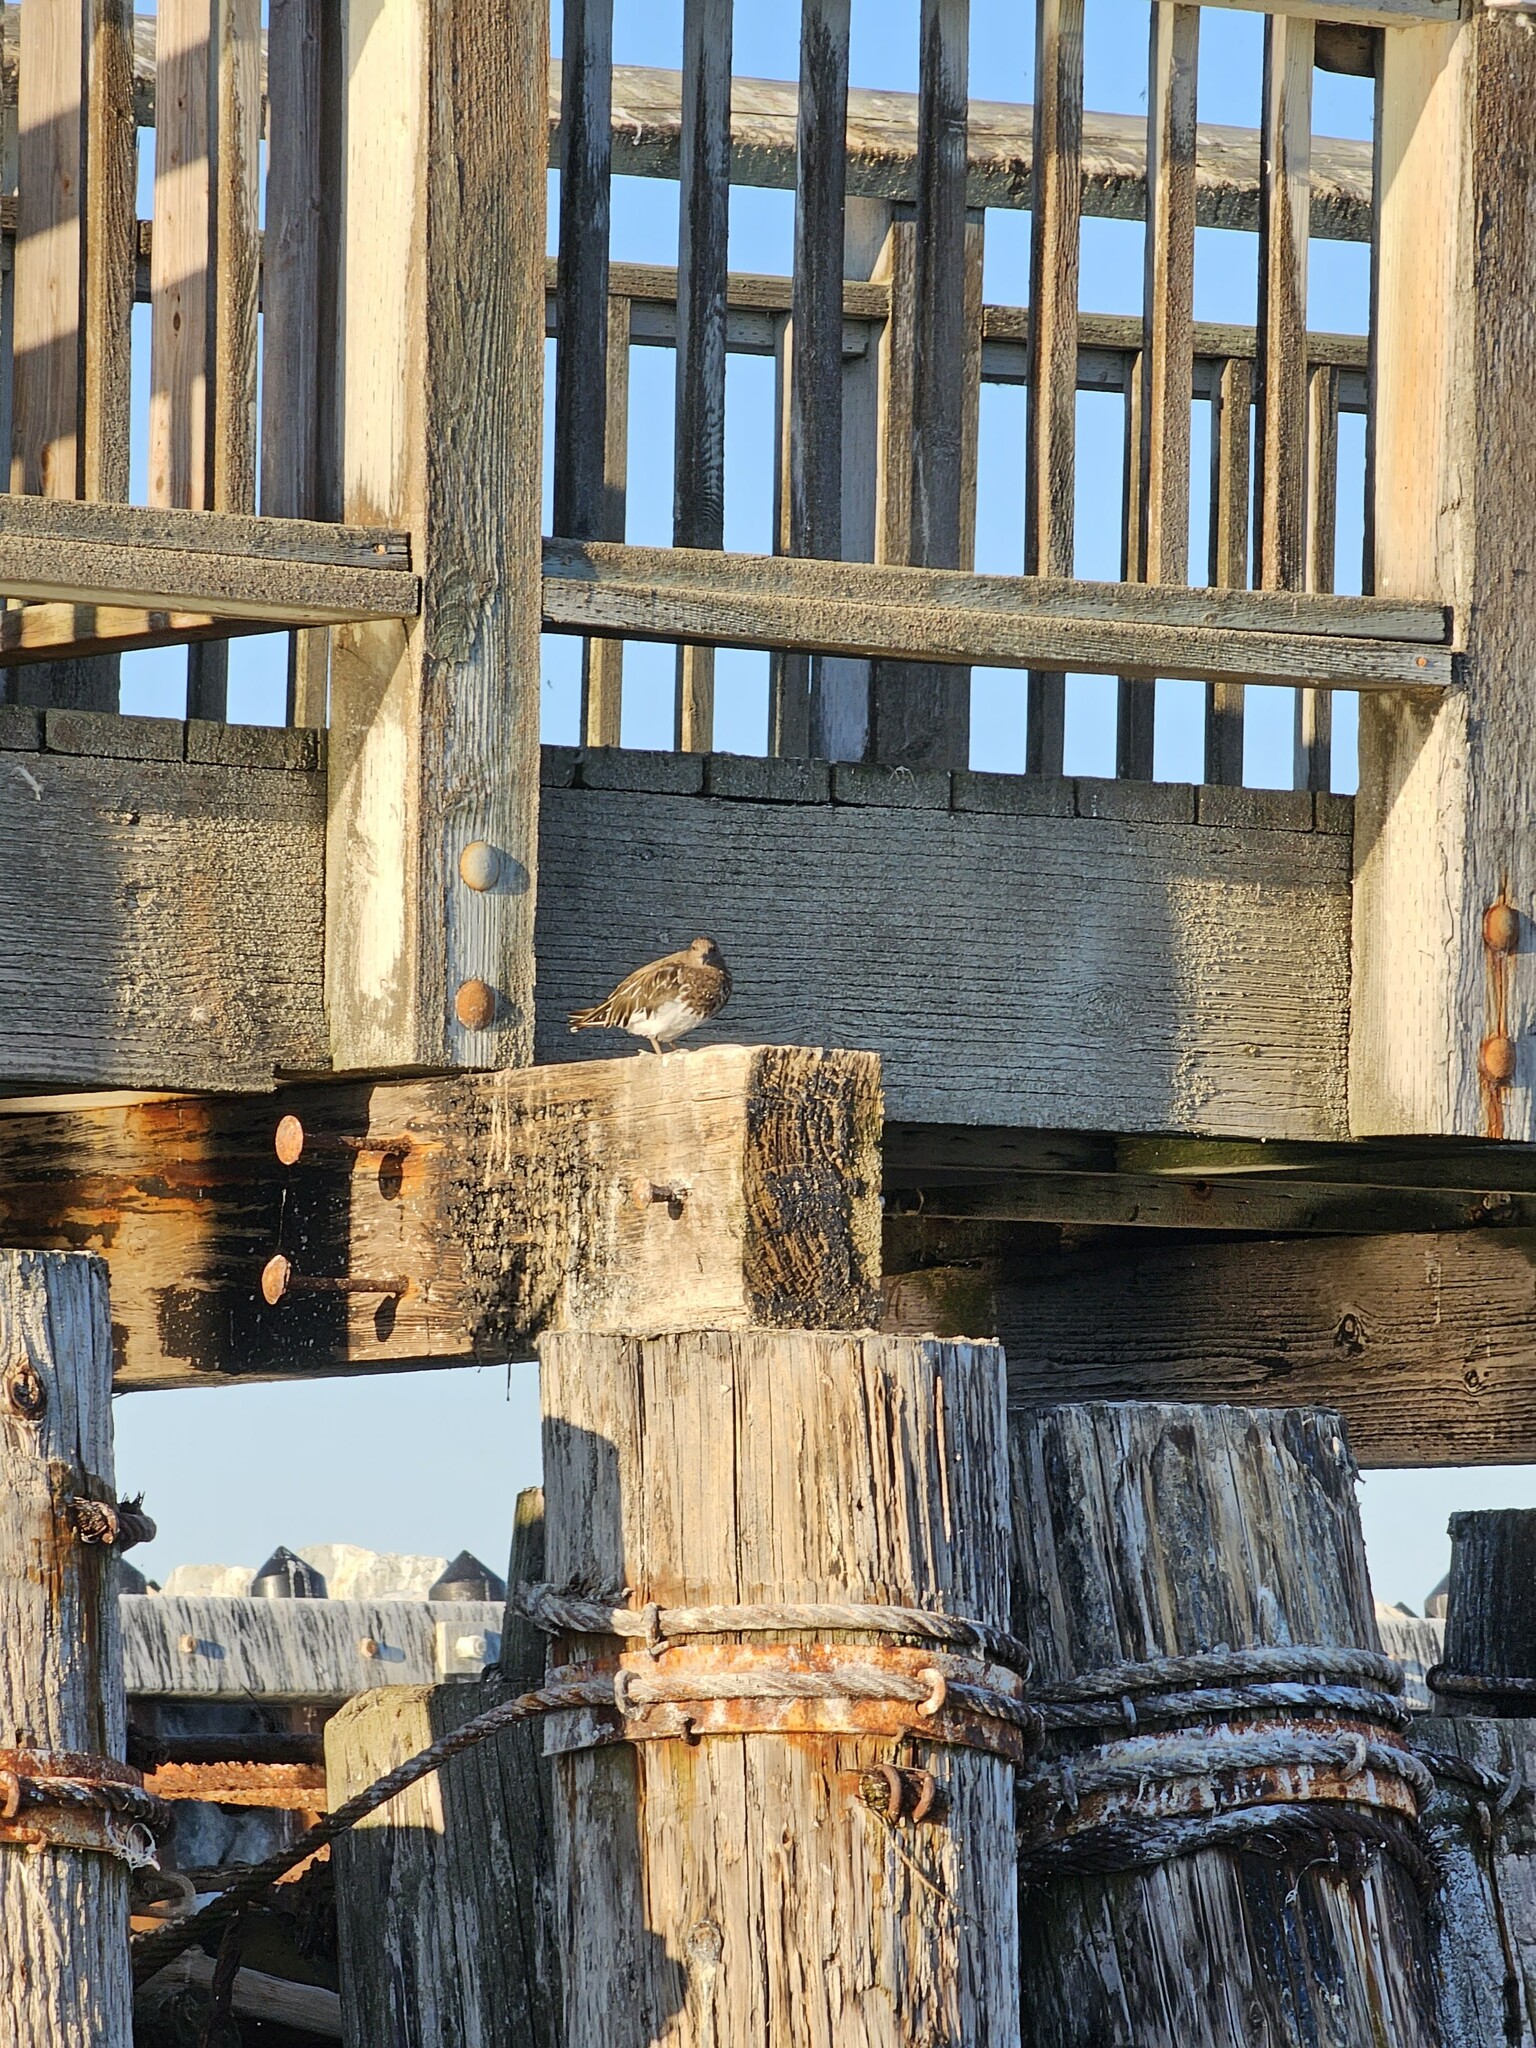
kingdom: Animalia
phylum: Chordata
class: Aves
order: Charadriiformes
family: Scolopacidae
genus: Arenaria
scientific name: Arenaria melanocephala
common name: Black turnstone
